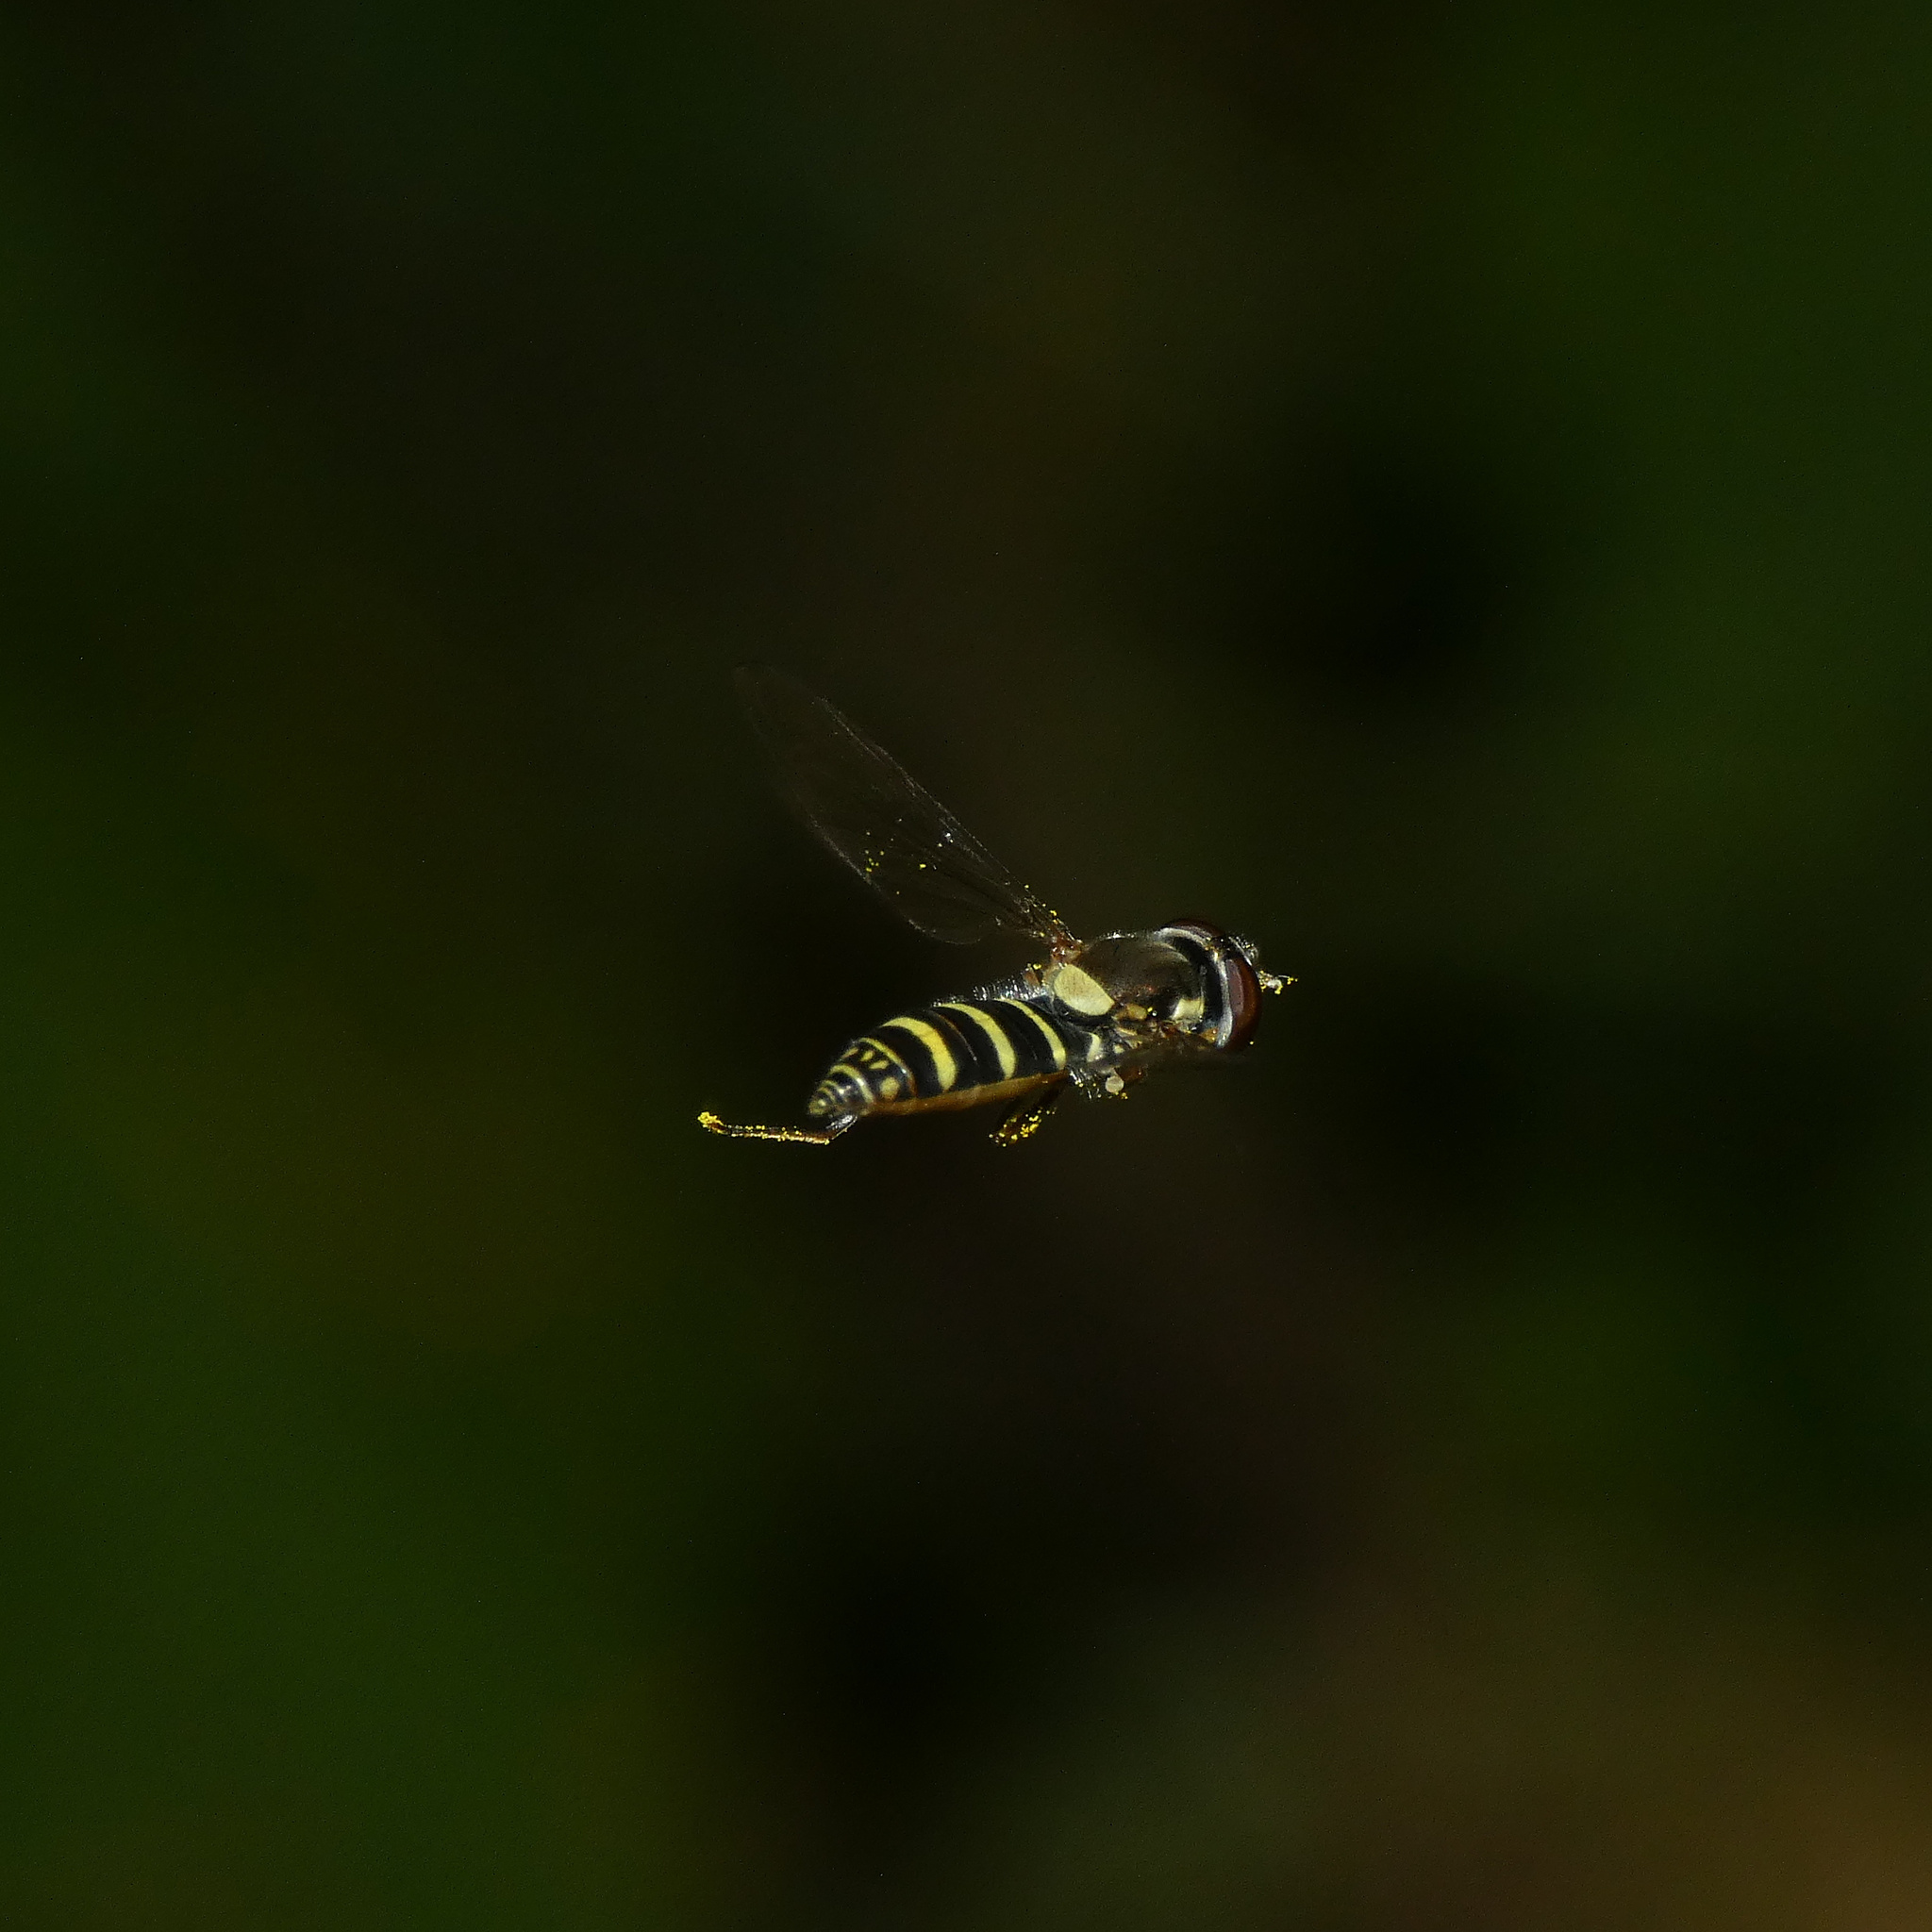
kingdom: Animalia
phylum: Arthropoda
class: Insecta
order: Diptera
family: Syrphidae
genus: Fazia
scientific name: Fazia micrura
